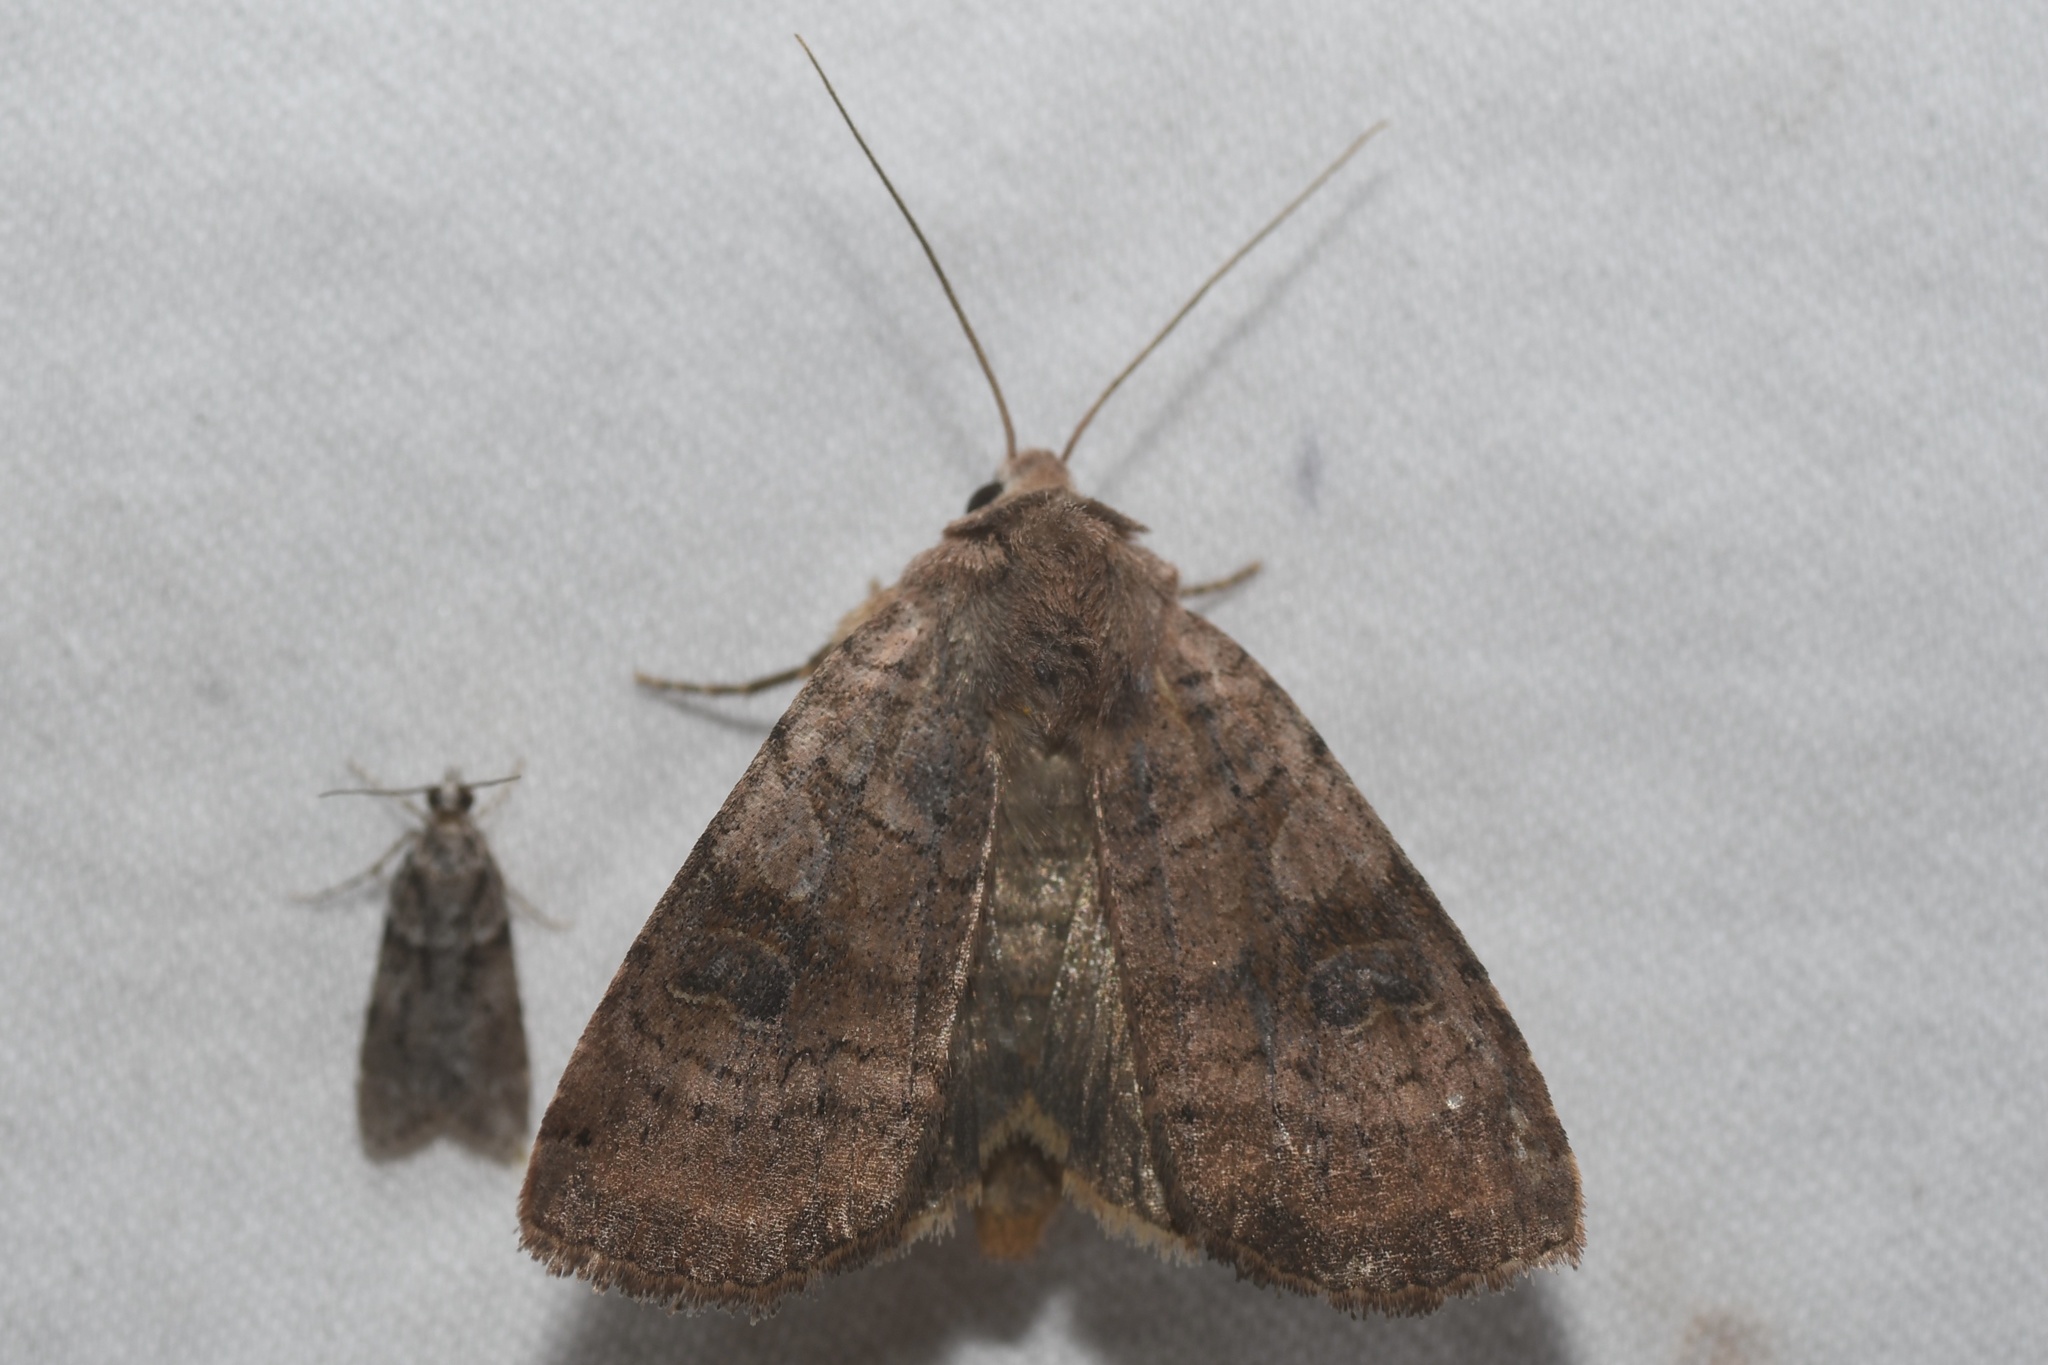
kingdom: Animalia
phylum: Arthropoda
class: Insecta
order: Lepidoptera
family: Noctuidae
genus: Xestia
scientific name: Xestia smithii
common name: Smith's dart
